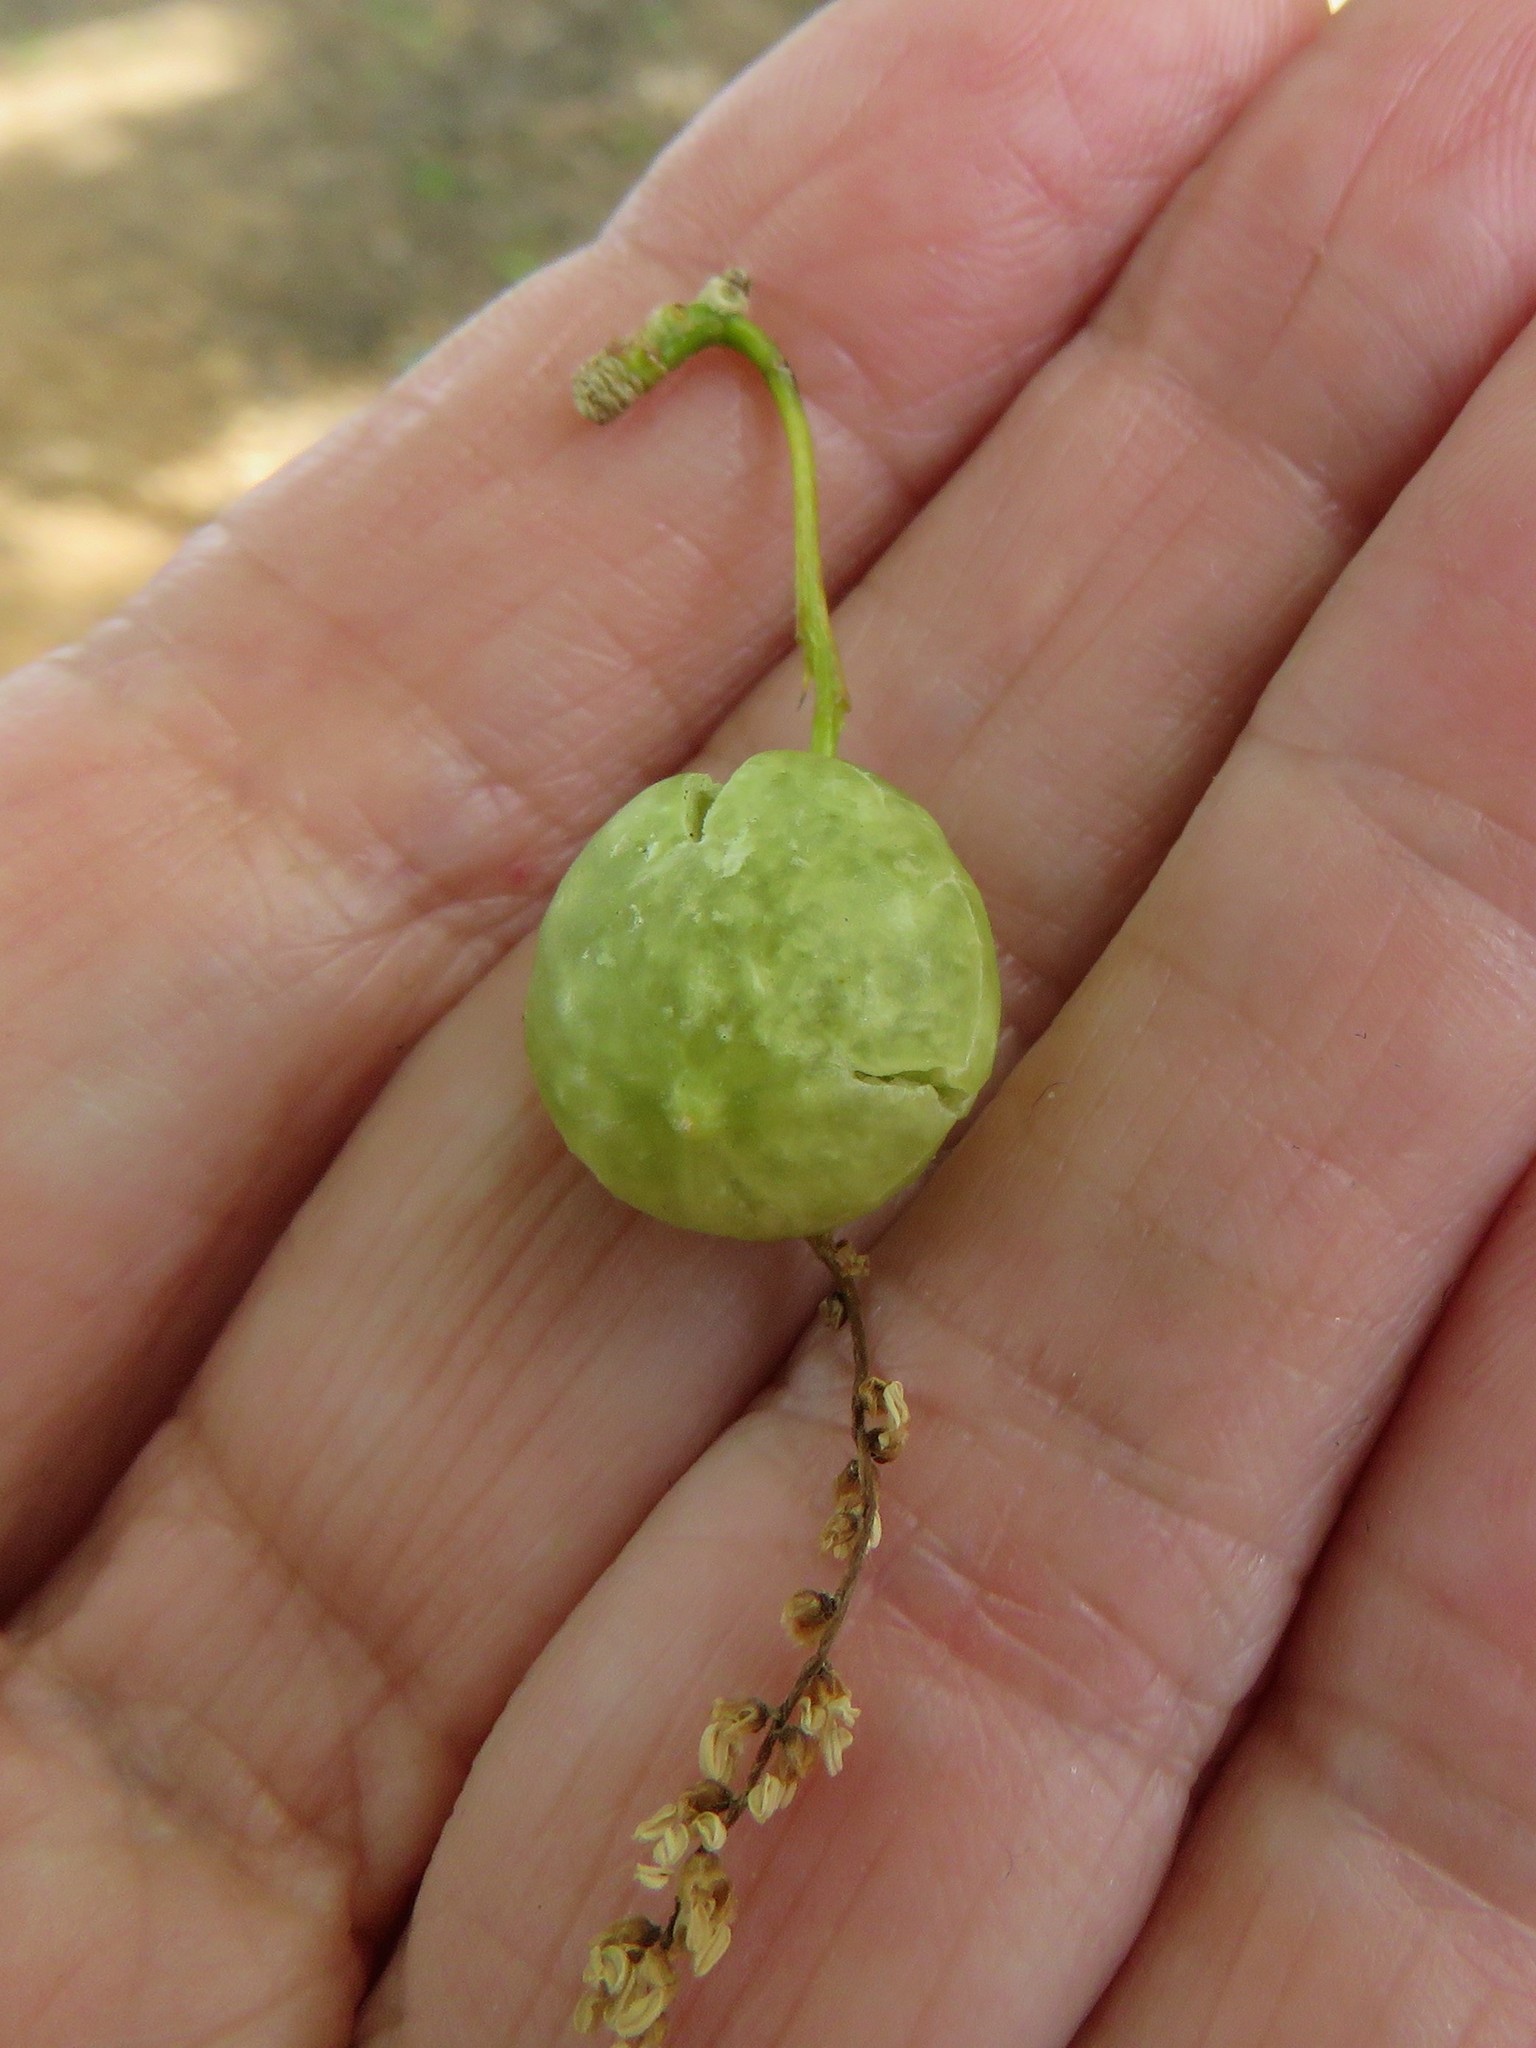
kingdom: Animalia
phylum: Arthropoda
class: Insecta
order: Hymenoptera
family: Cynipidae
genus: Dryocosmus
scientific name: Dryocosmus quercuspalustris
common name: Succulent oak gall wasp
